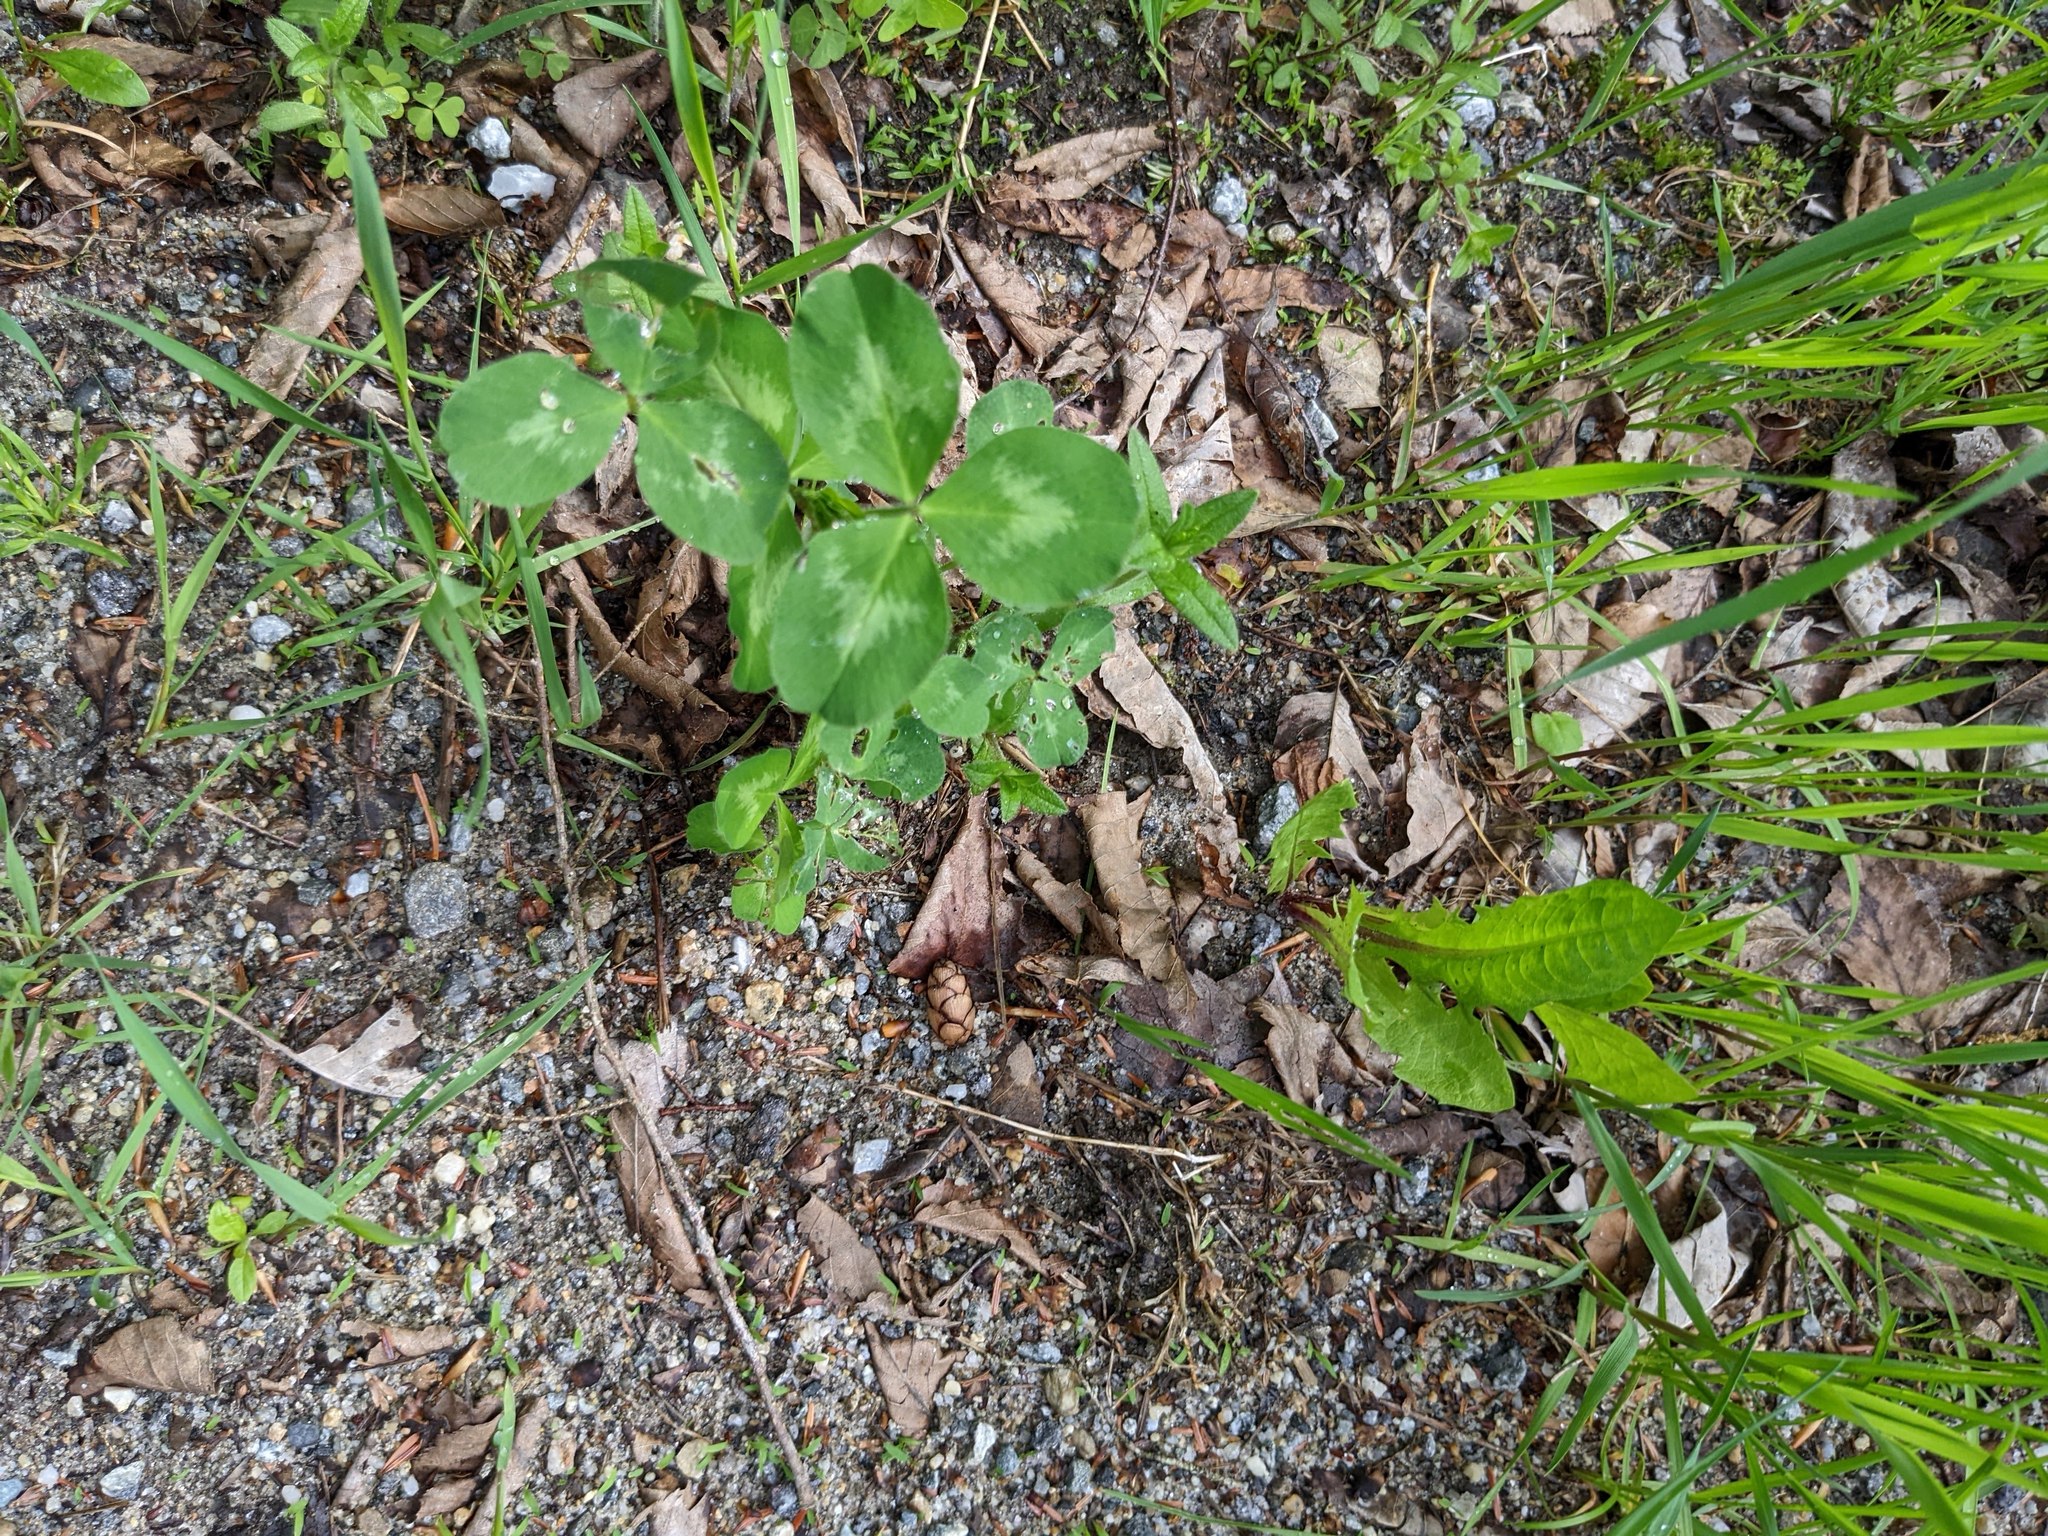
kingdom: Plantae
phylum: Tracheophyta
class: Magnoliopsida
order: Fabales
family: Fabaceae
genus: Trifolium
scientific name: Trifolium pratense
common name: Red clover
